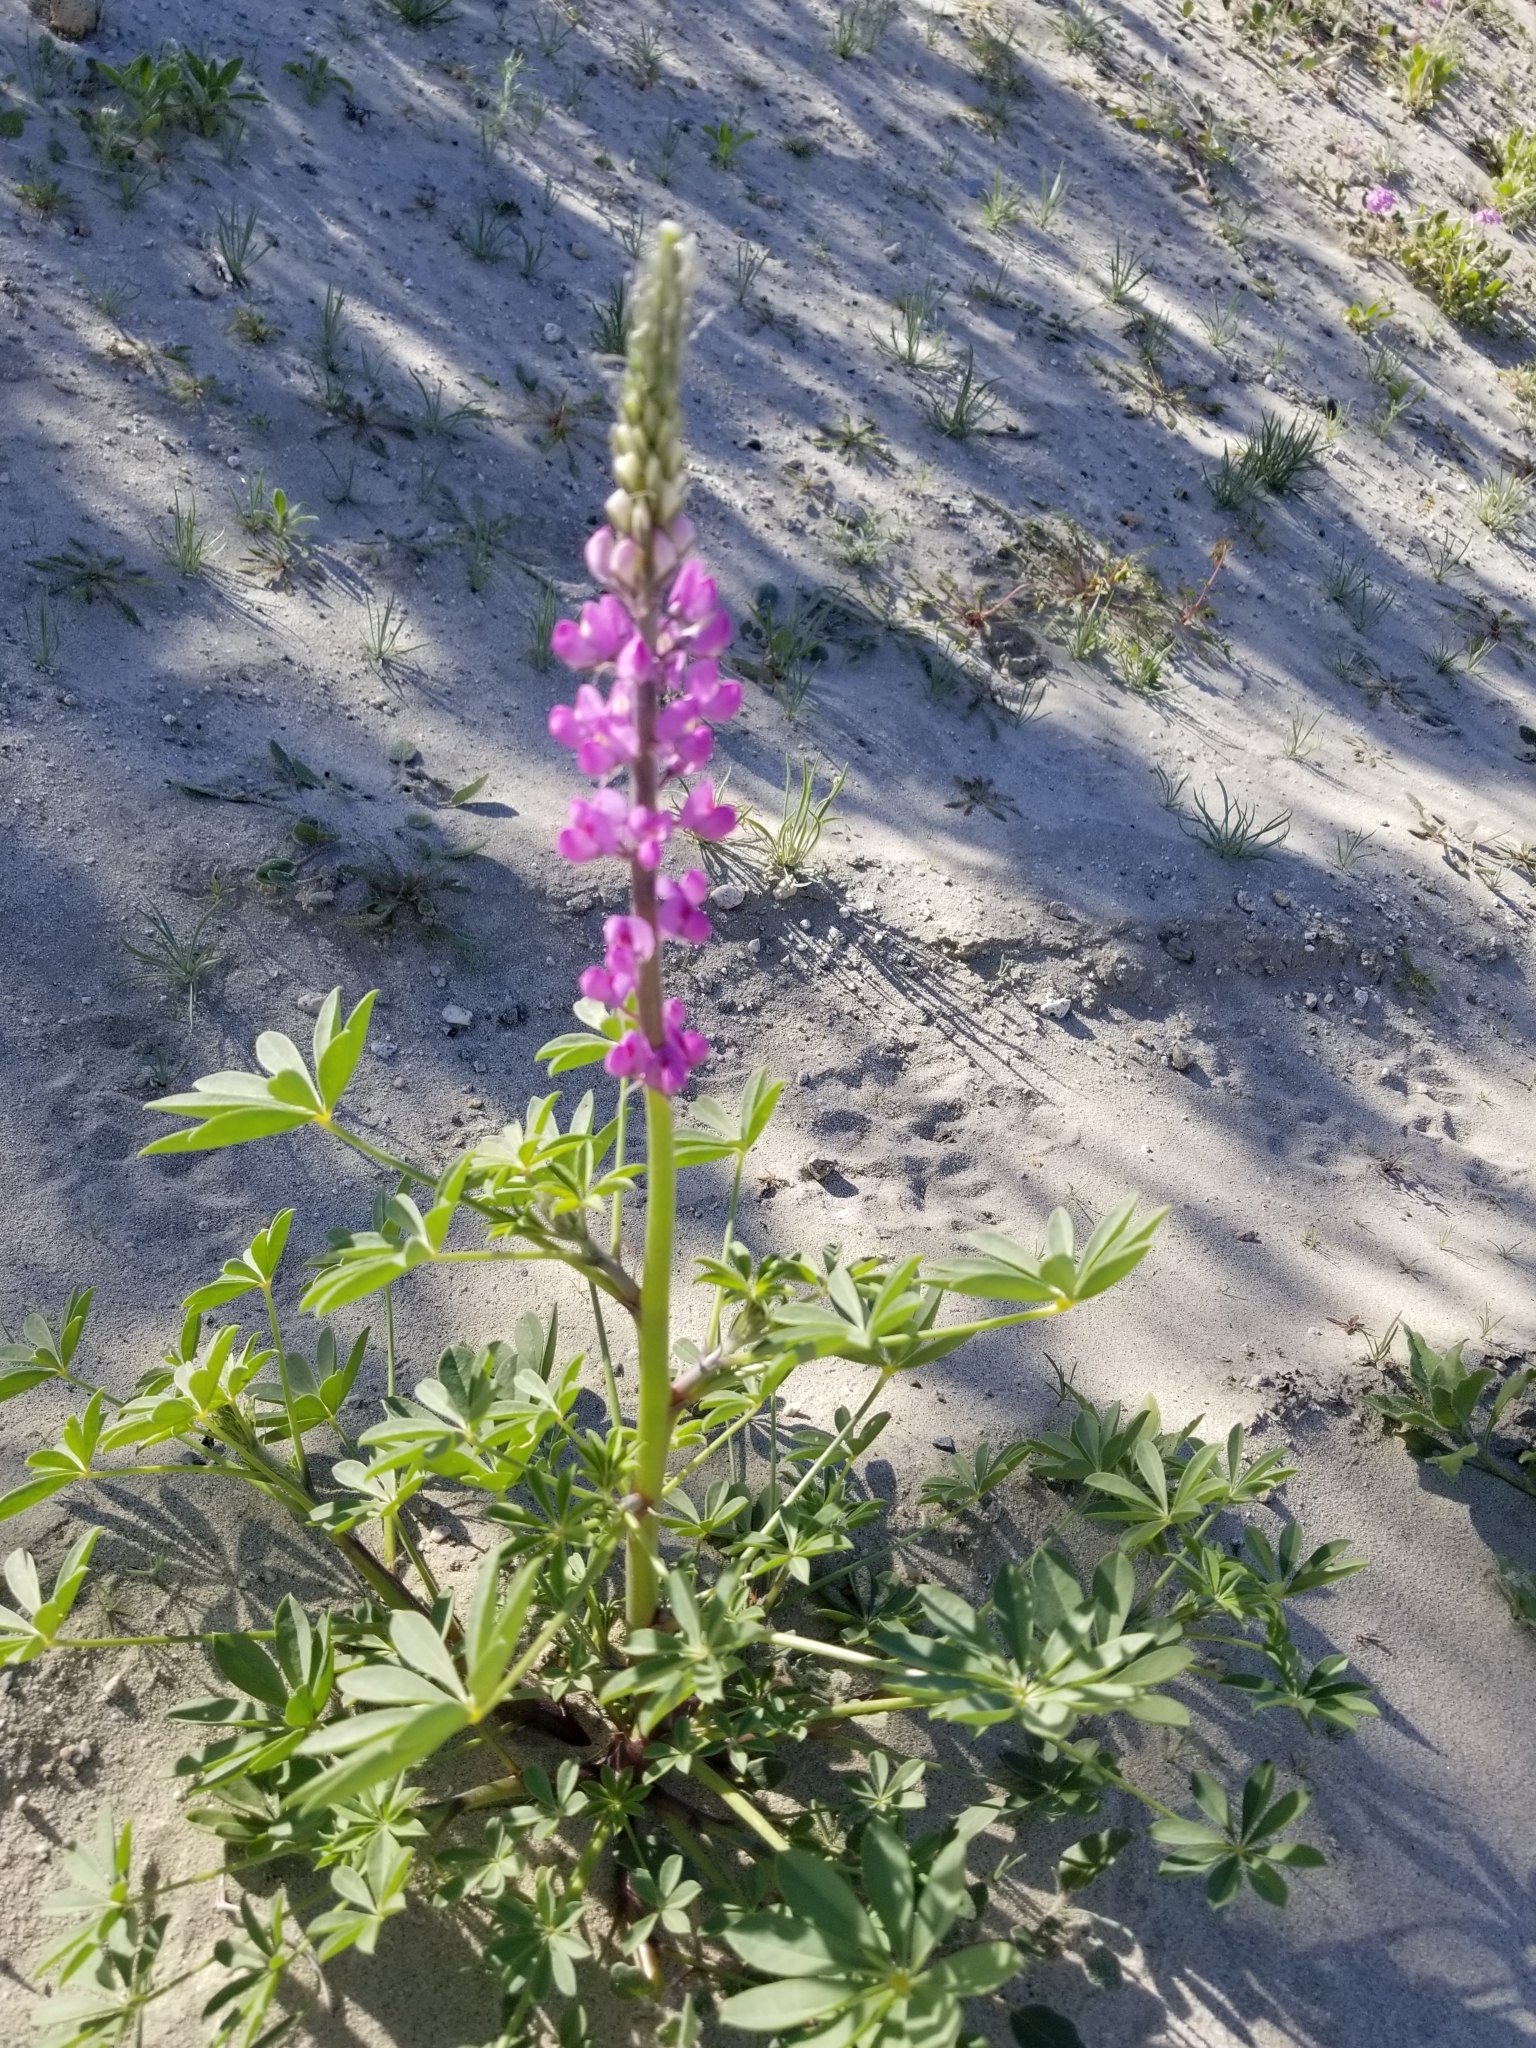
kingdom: Plantae
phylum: Tracheophyta
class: Magnoliopsida
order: Fabales
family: Fabaceae
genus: Lupinus
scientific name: Lupinus arizonicus
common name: Arizona lupine
